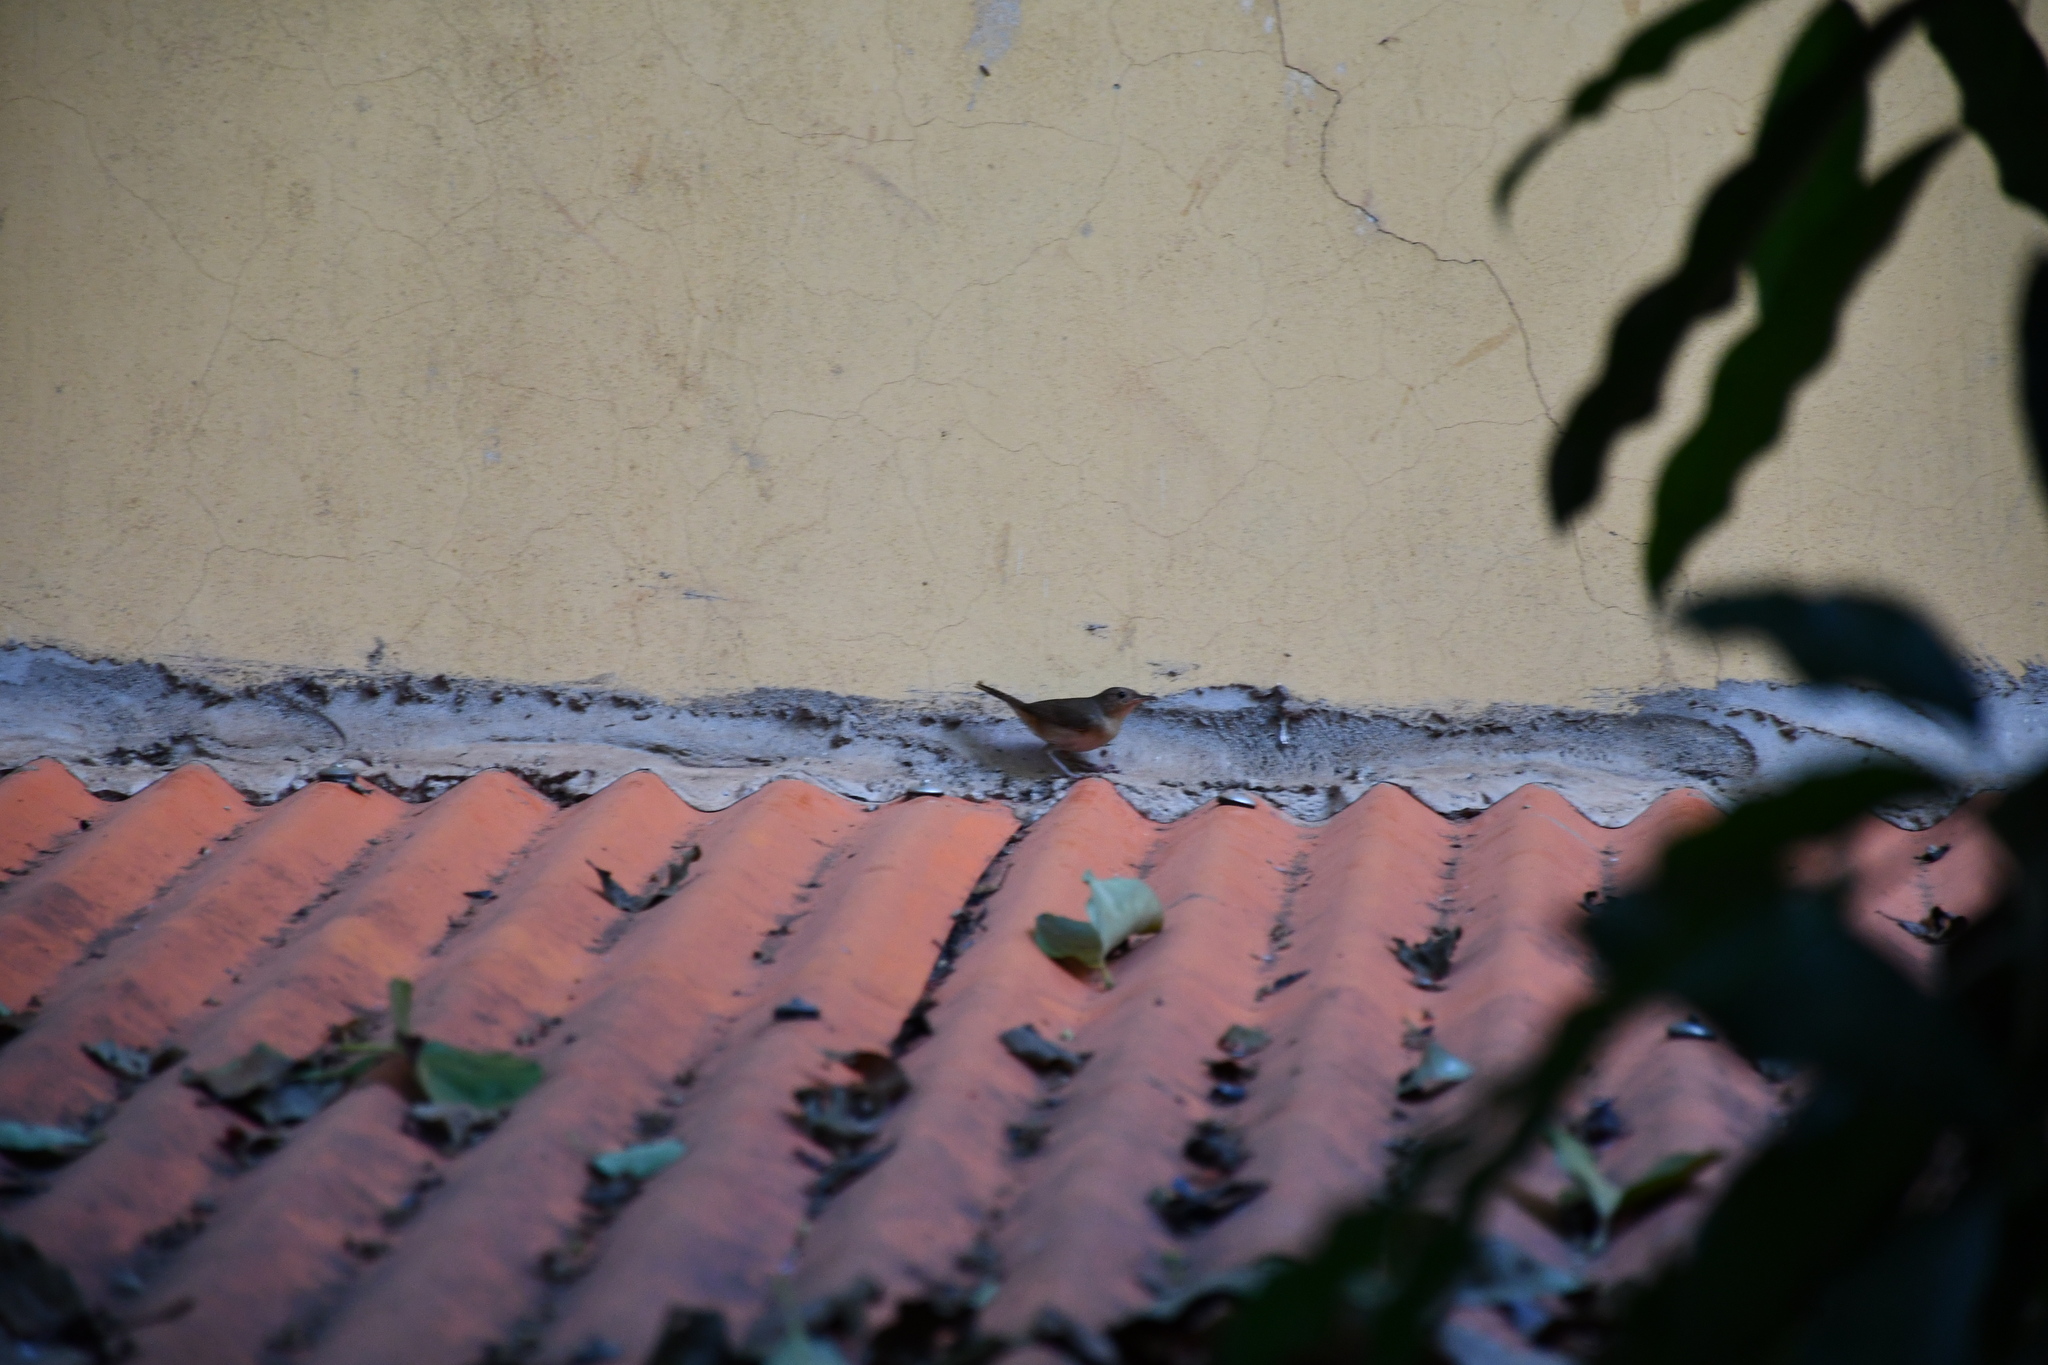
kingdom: Animalia
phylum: Chordata
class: Aves
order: Passeriformes
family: Troglodytidae
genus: Troglodytes
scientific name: Troglodytes aedon
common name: House wren
